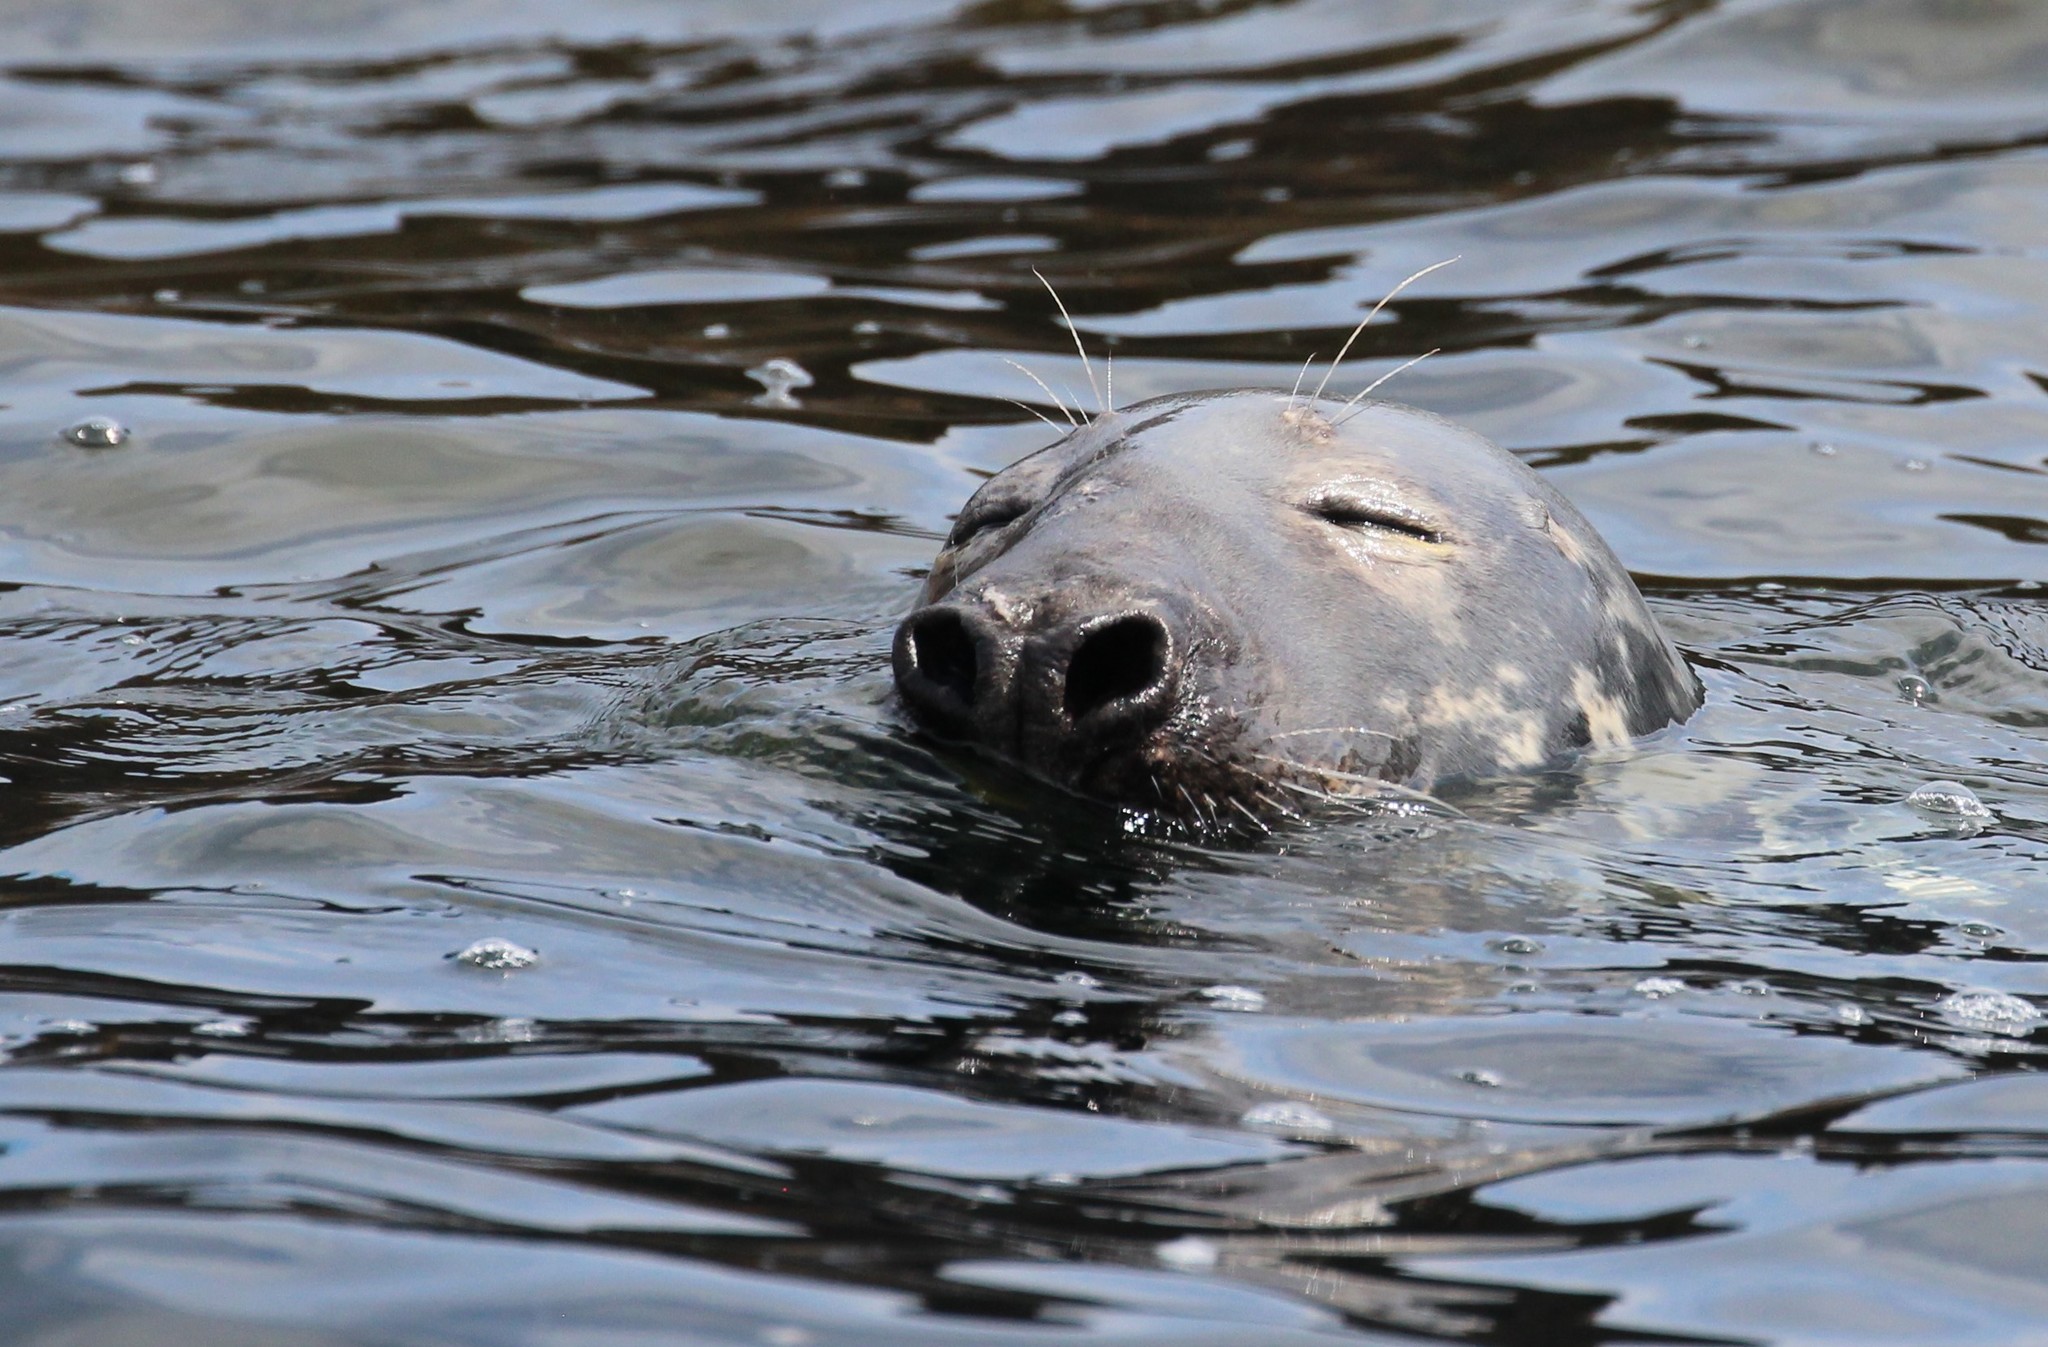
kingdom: Animalia
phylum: Chordata
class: Mammalia
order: Carnivora
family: Phocidae
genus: Halichoerus
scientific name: Halichoerus grypus
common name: Grey seal
